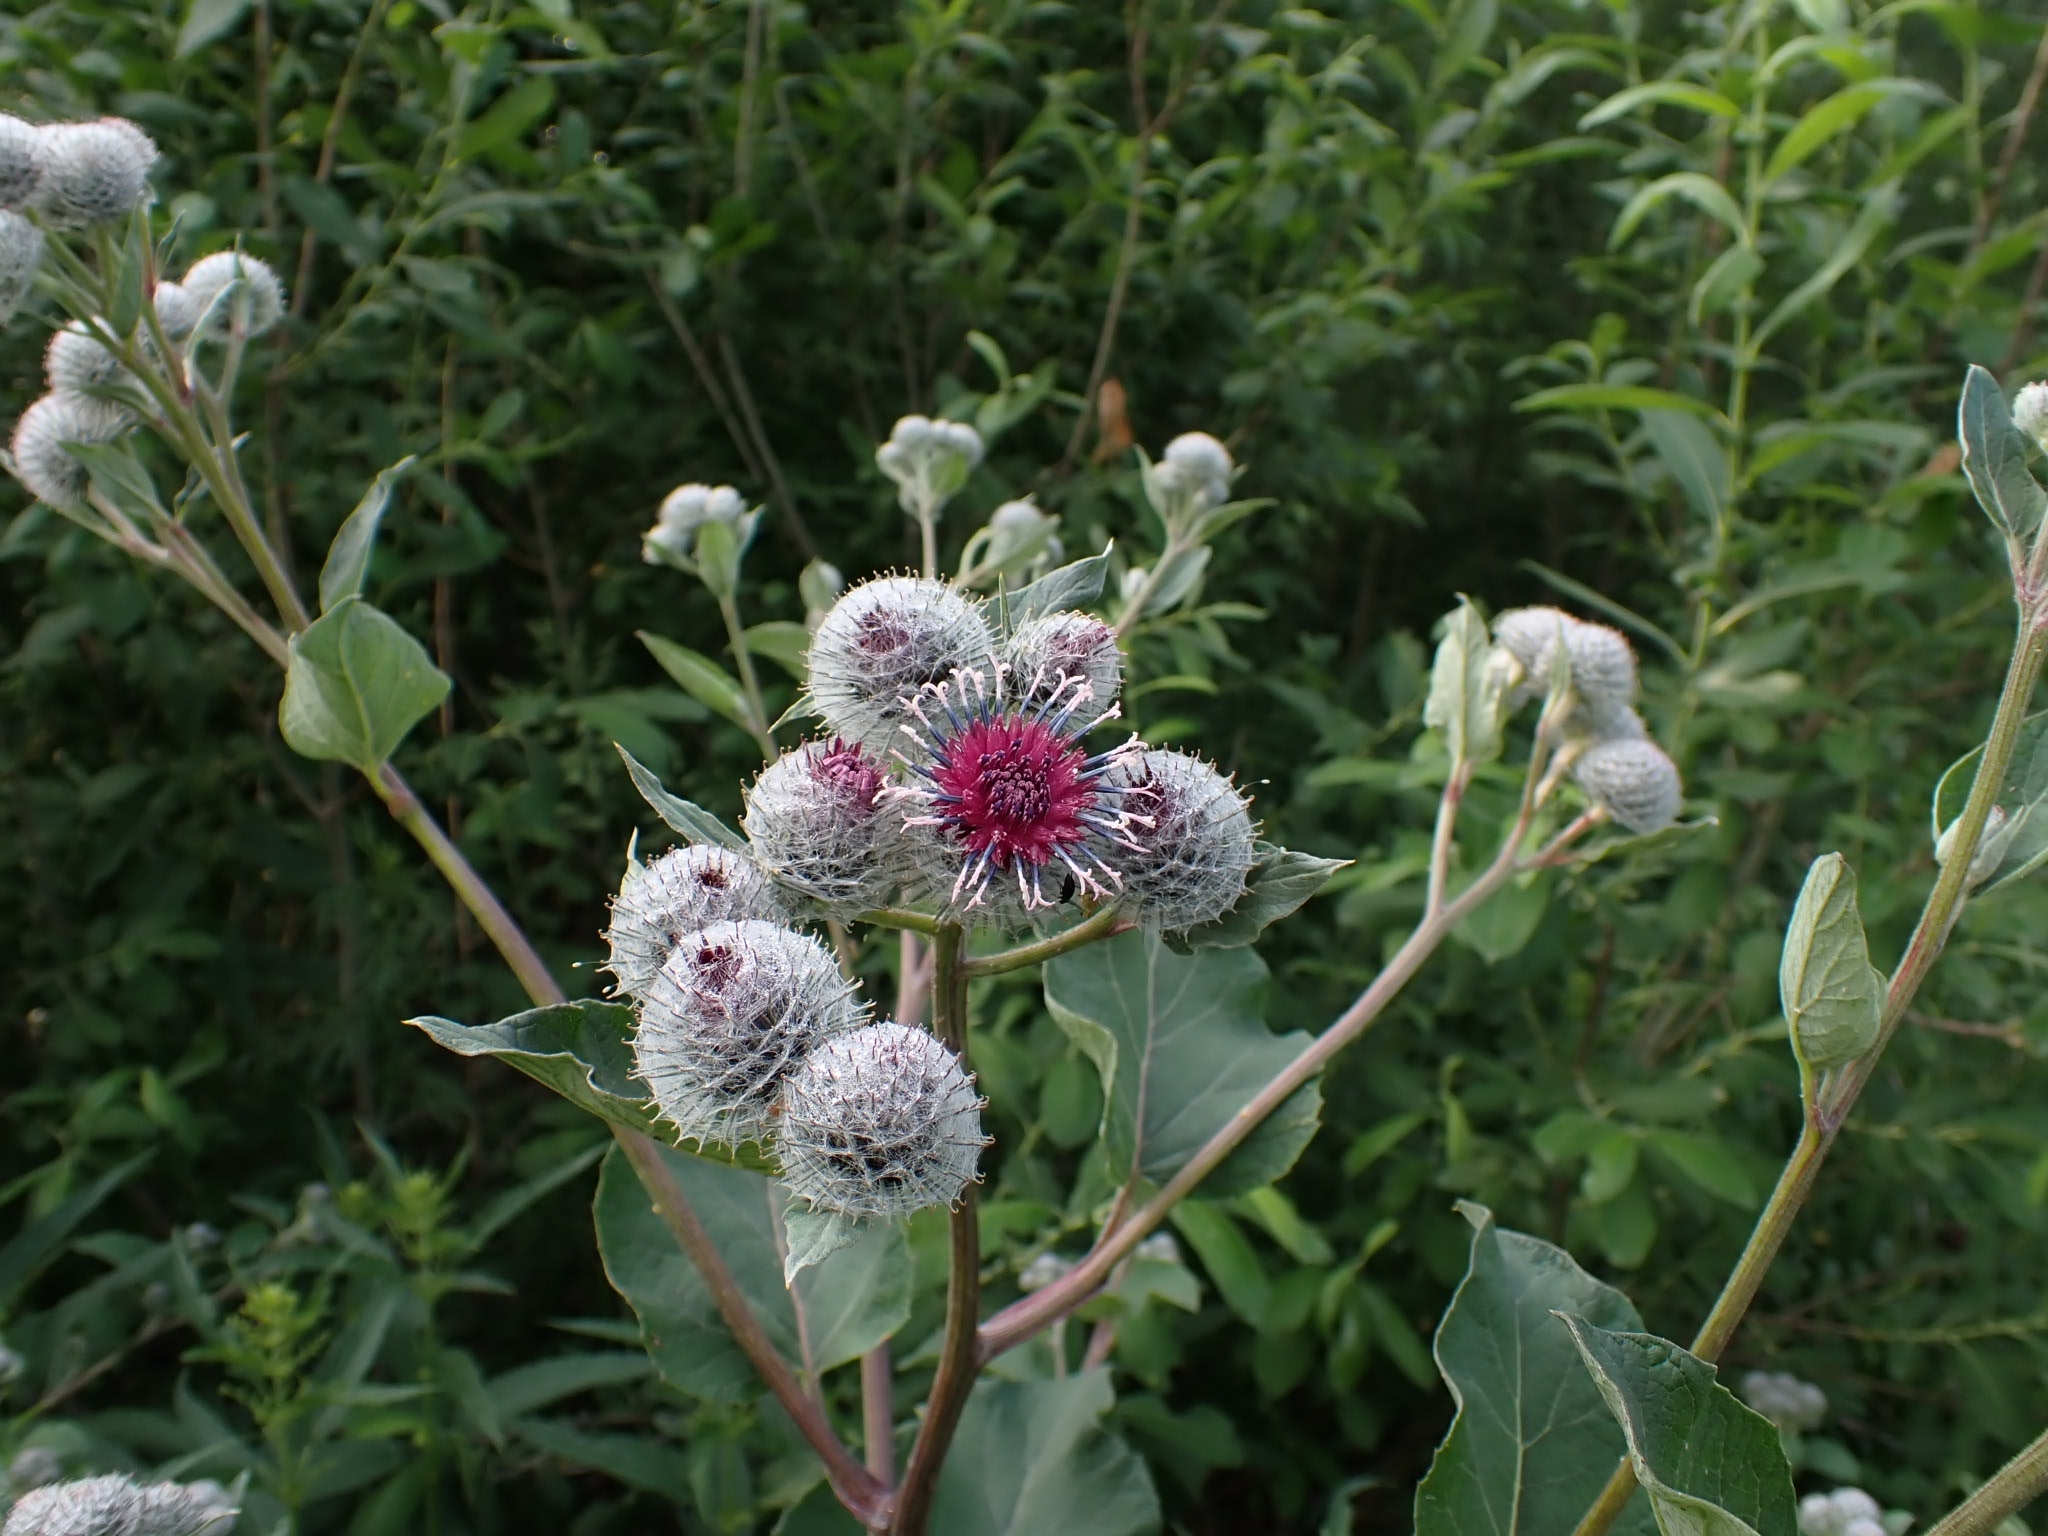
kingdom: Plantae
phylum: Tracheophyta
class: Magnoliopsida
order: Asterales
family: Asteraceae
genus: Arctium
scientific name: Arctium tomentosum
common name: Woolly burdock
